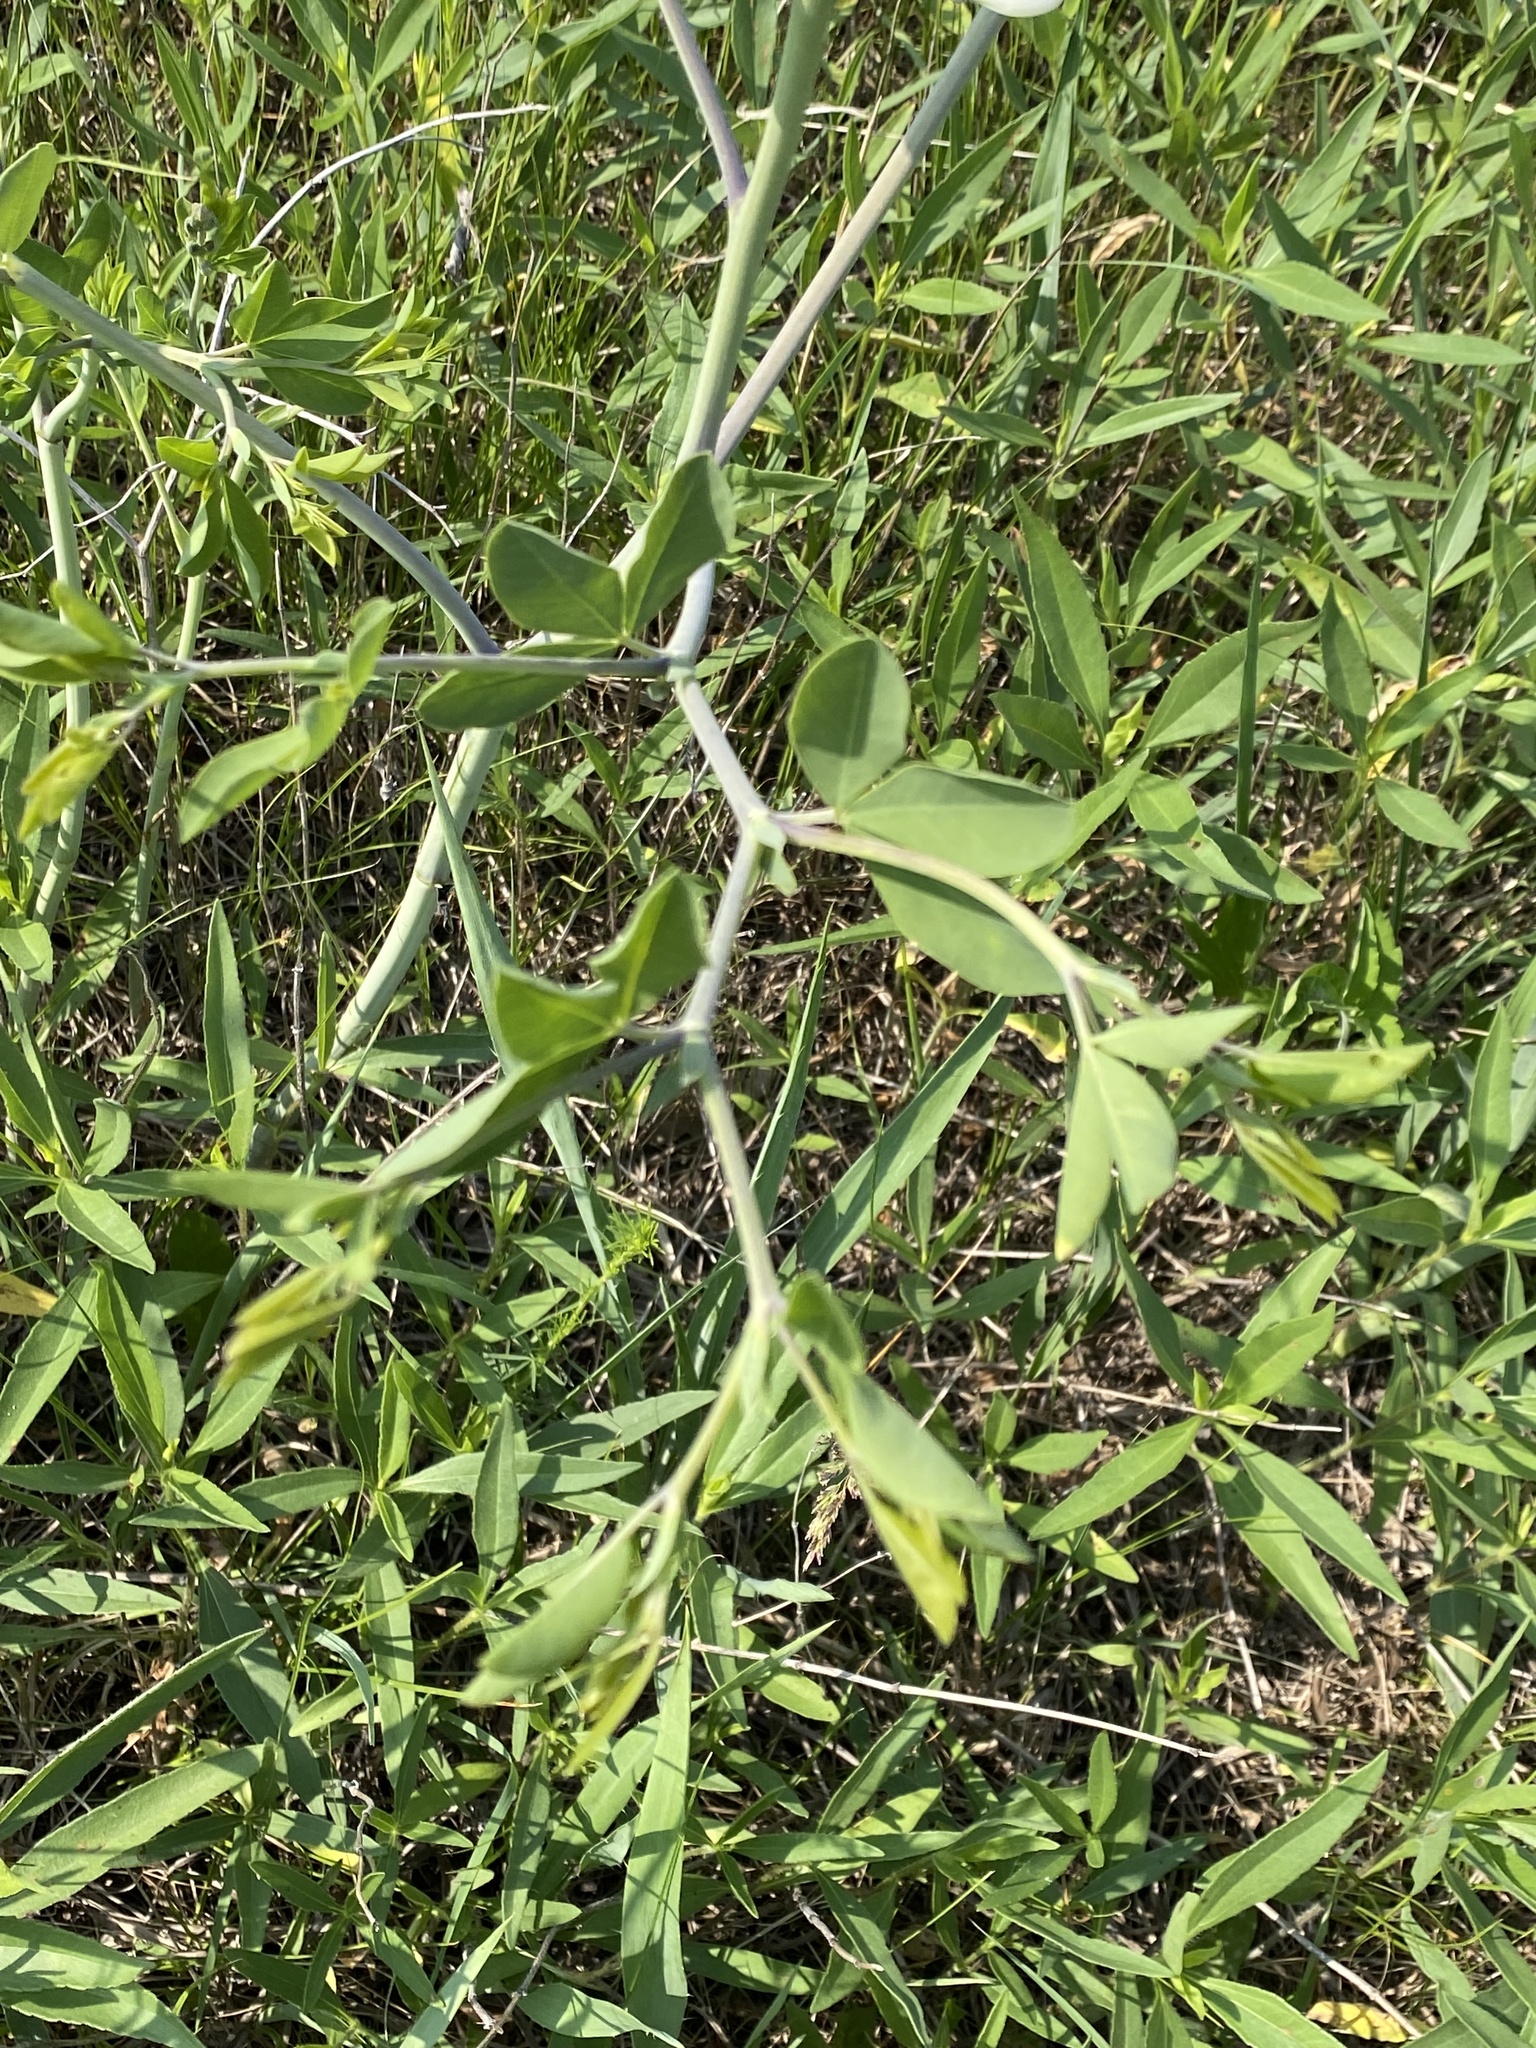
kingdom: Plantae
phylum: Tracheophyta
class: Magnoliopsida
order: Fabales
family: Fabaceae
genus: Baptisia
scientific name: Baptisia alba
